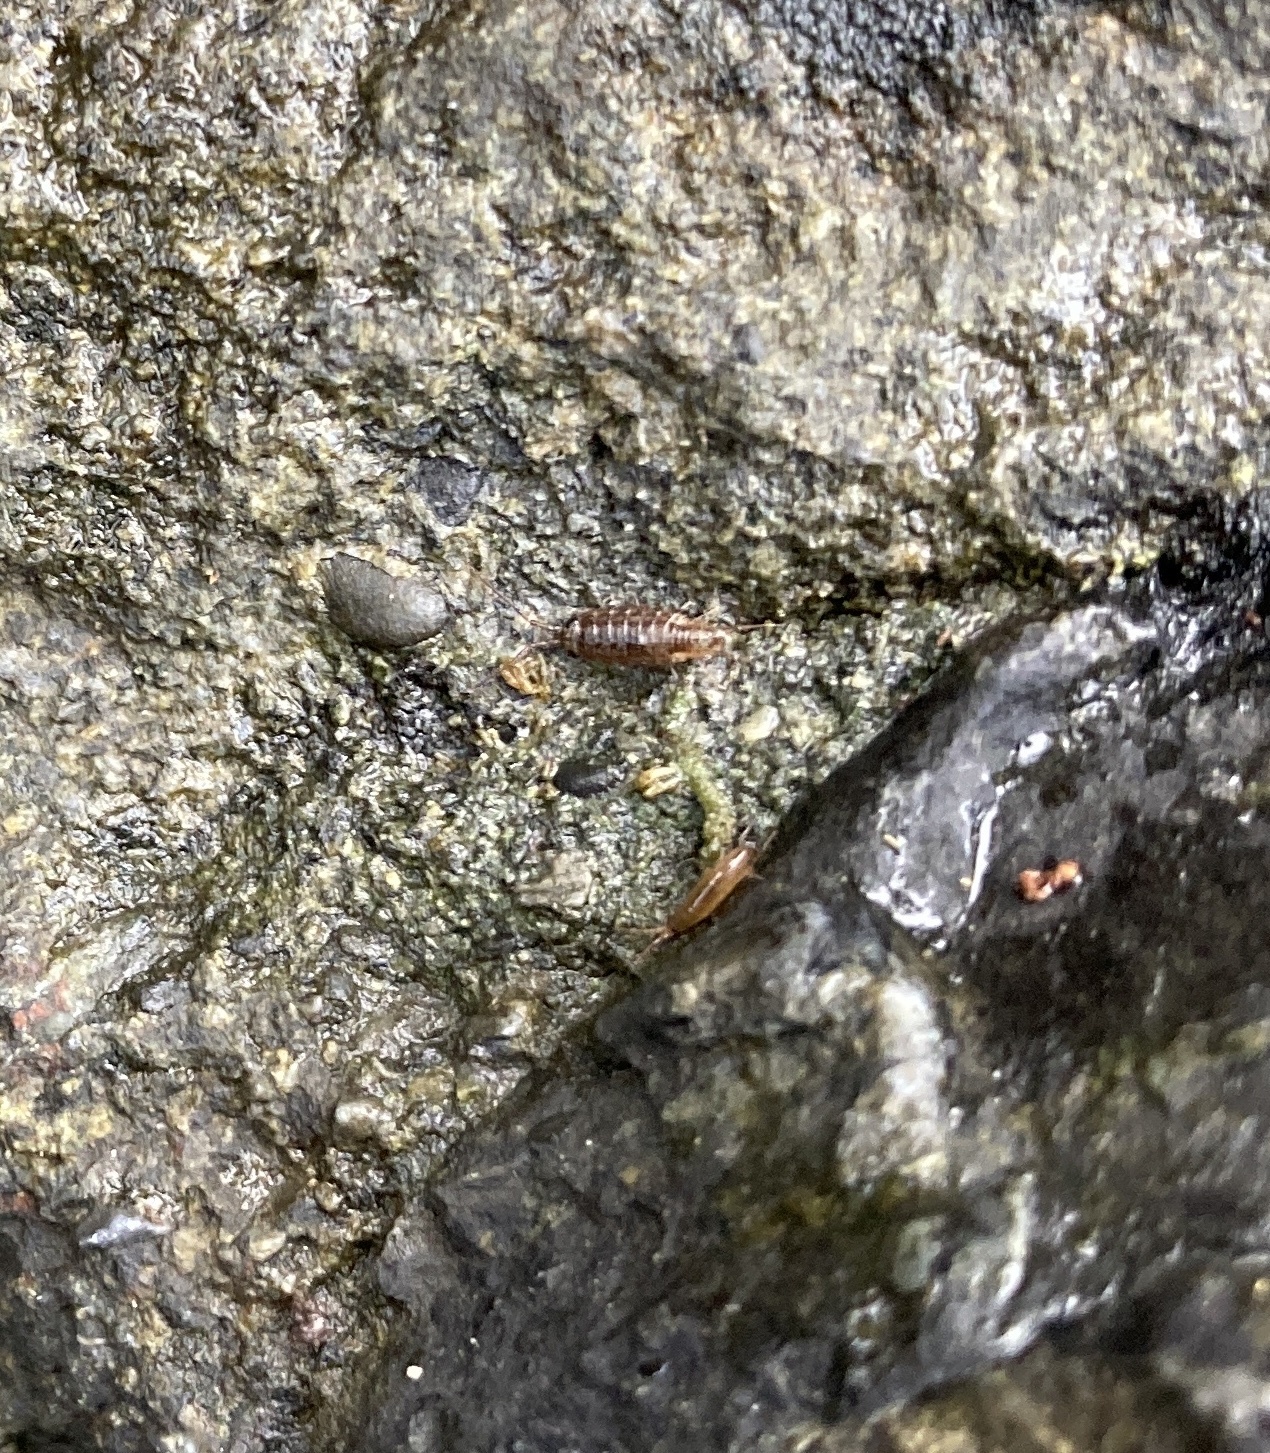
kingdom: Animalia
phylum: Arthropoda
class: Malacostraca
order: Isopoda
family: Ligiidae
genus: Ligia
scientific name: Ligia novizealandiae
